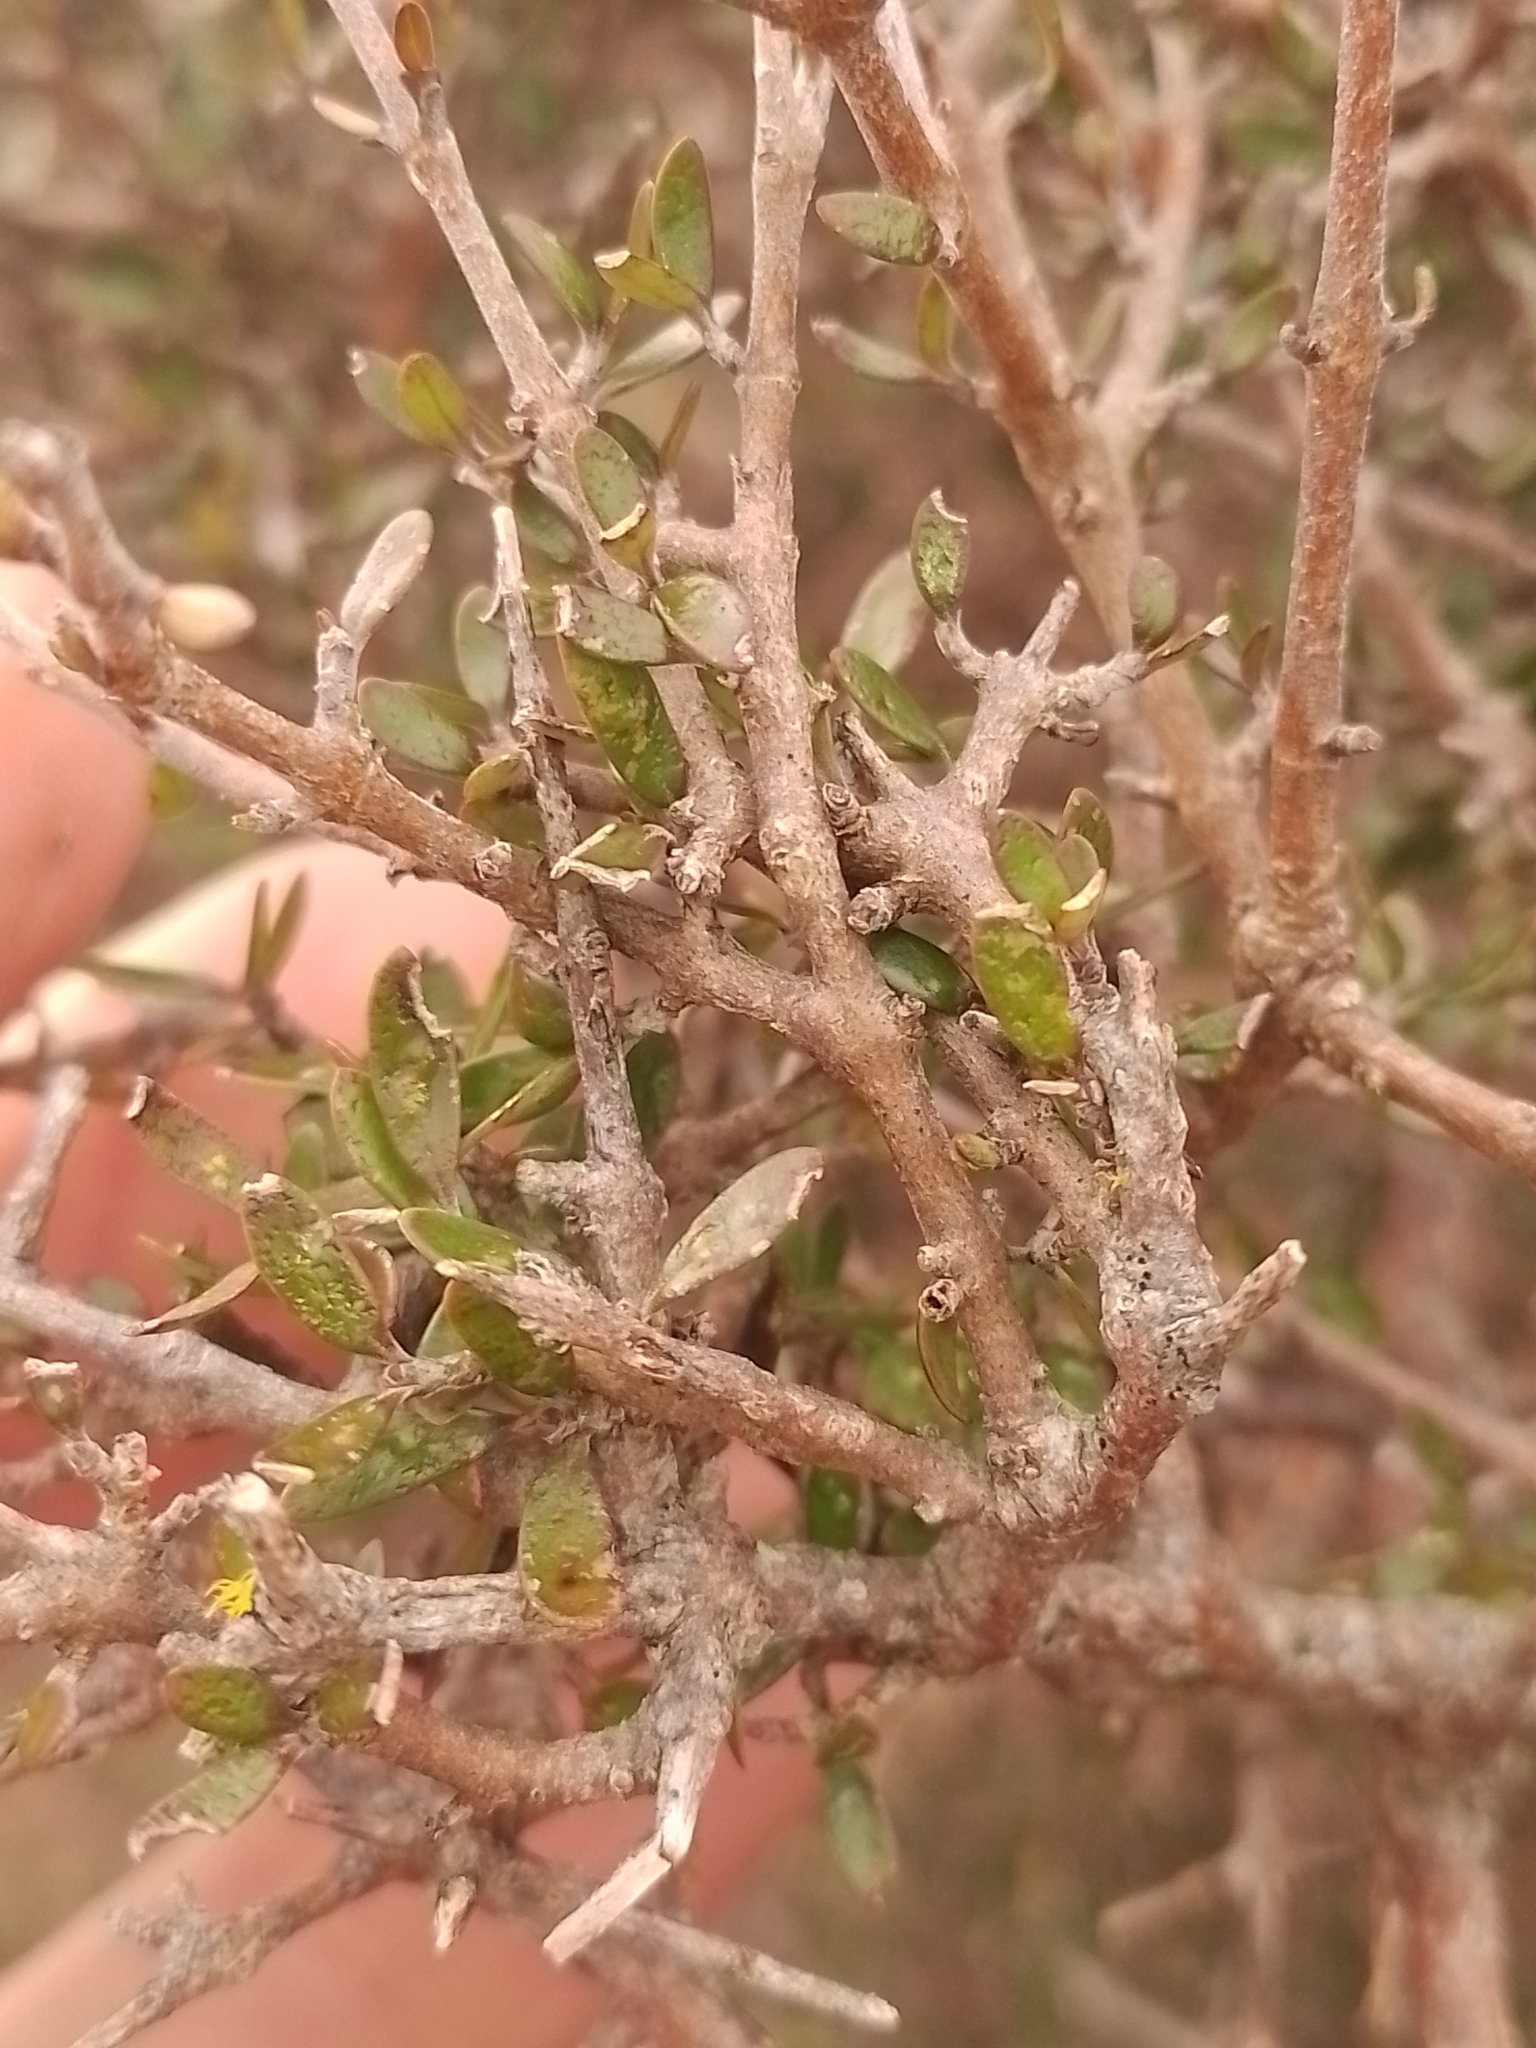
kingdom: Plantae
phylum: Tracheophyta
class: Magnoliopsida
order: Gentianales
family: Rubiaceae
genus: Coprosma
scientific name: Coprosma propinqua
